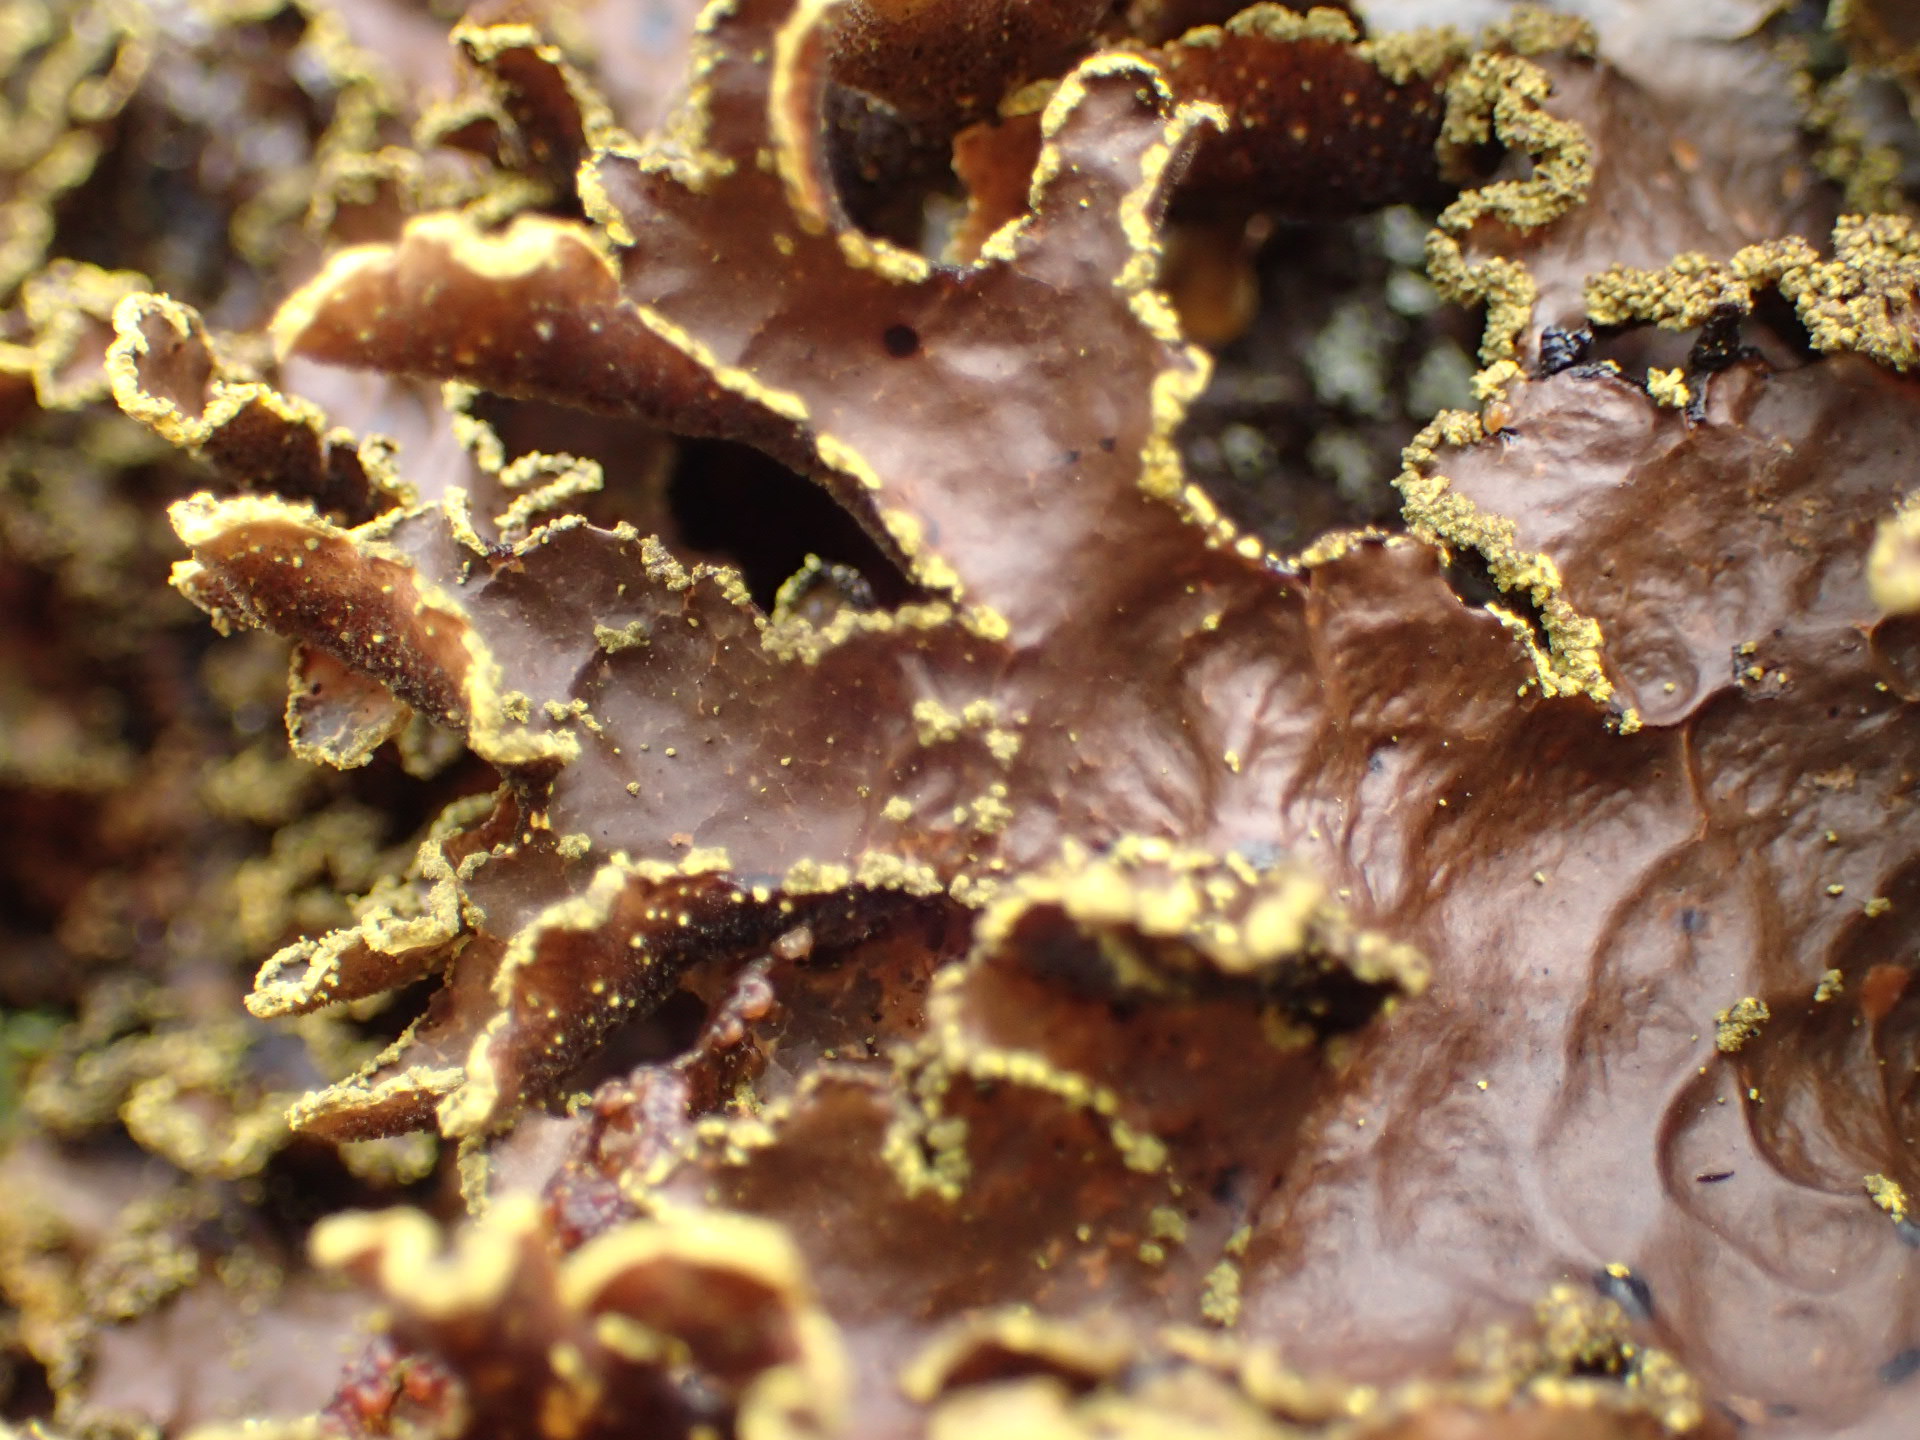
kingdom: Fungi
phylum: Ascomycota
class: Lecanoromycetes
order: Peltigerales
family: Lobariaceae
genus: Pseudocyphellaria
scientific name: Pseudocyphellaria holarctica
